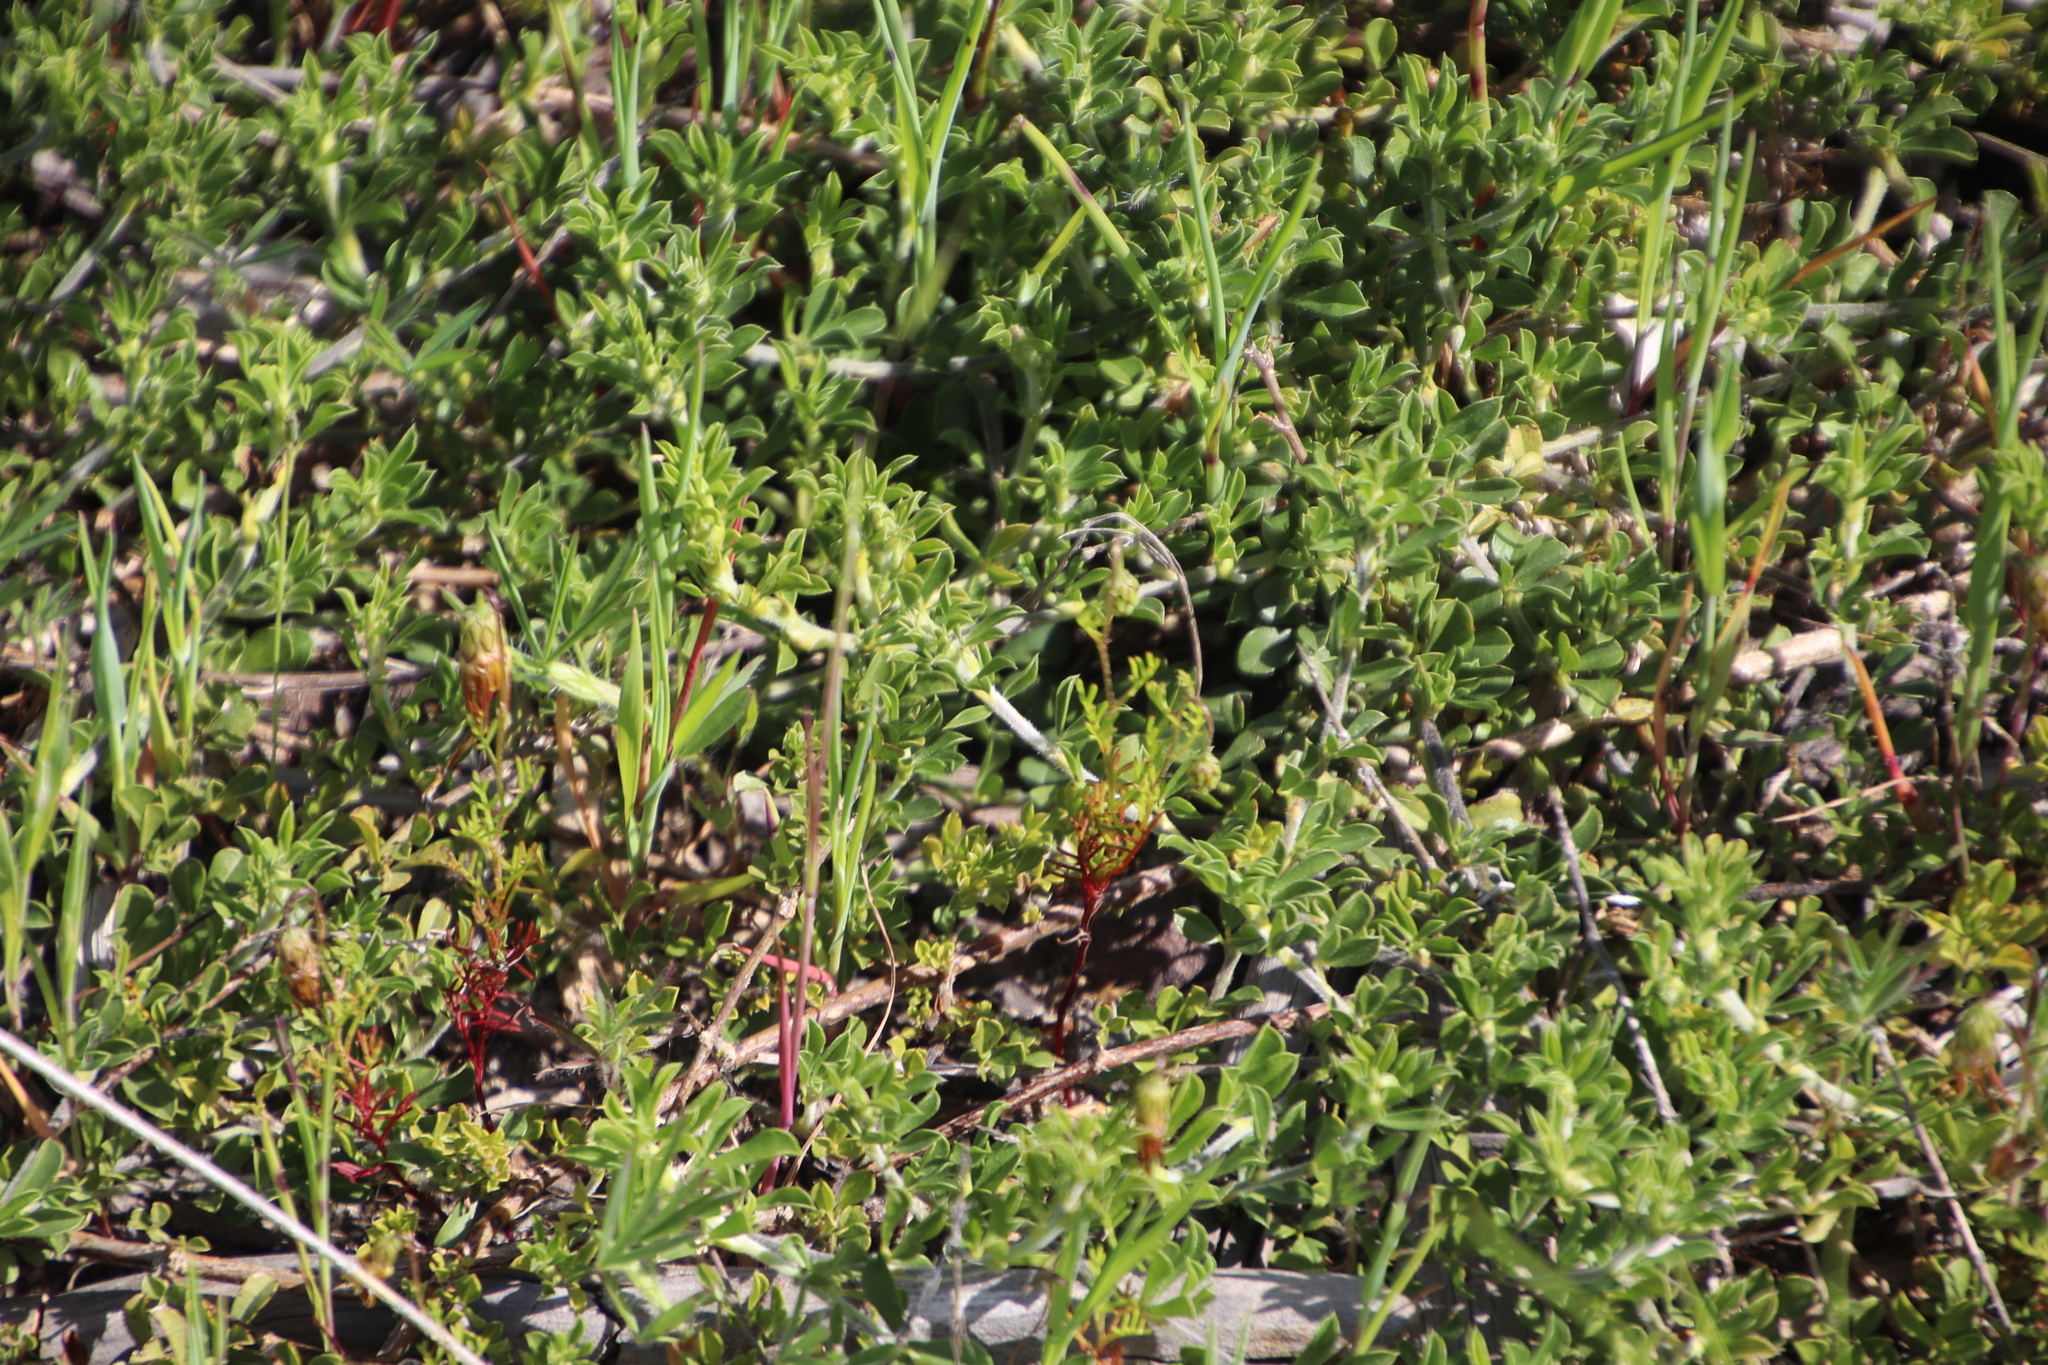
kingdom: Plantae
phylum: Tracheophyta
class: Magnoliopsida
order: Fabales
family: Fabaceae
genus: Psoralea
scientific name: Psoralea
